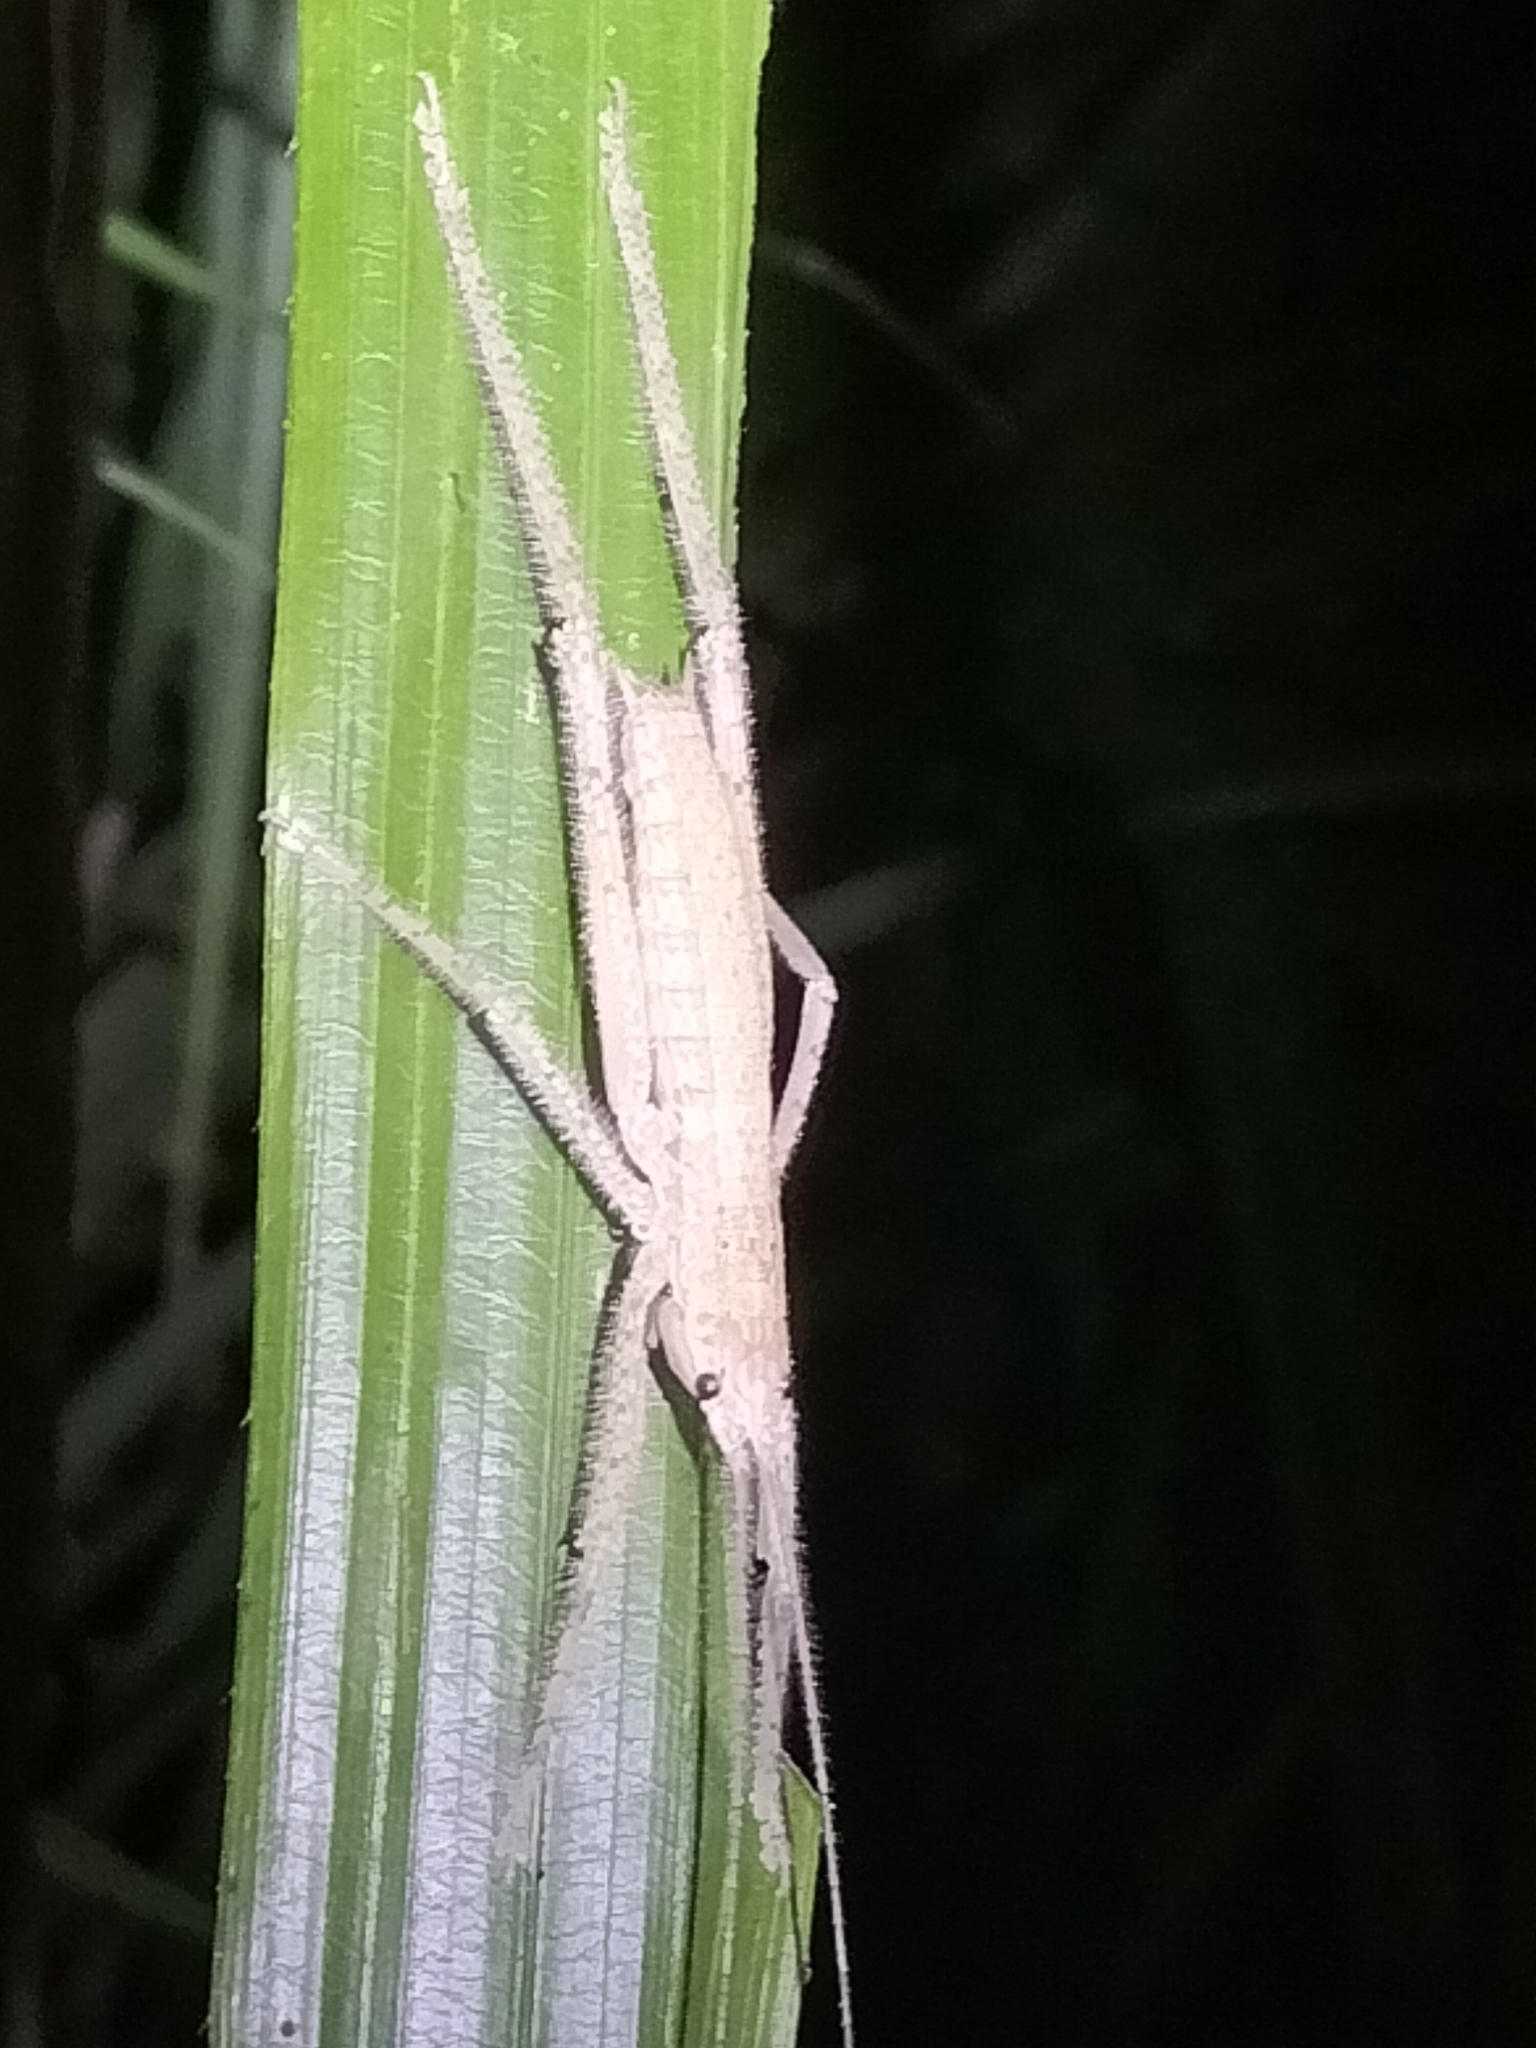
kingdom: Animalia
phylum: Arthropoda
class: Insecta
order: Orthoptera
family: Tettigoniidae
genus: Segestidea
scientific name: Segestidea queenslandica
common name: Queensland palm katydid
